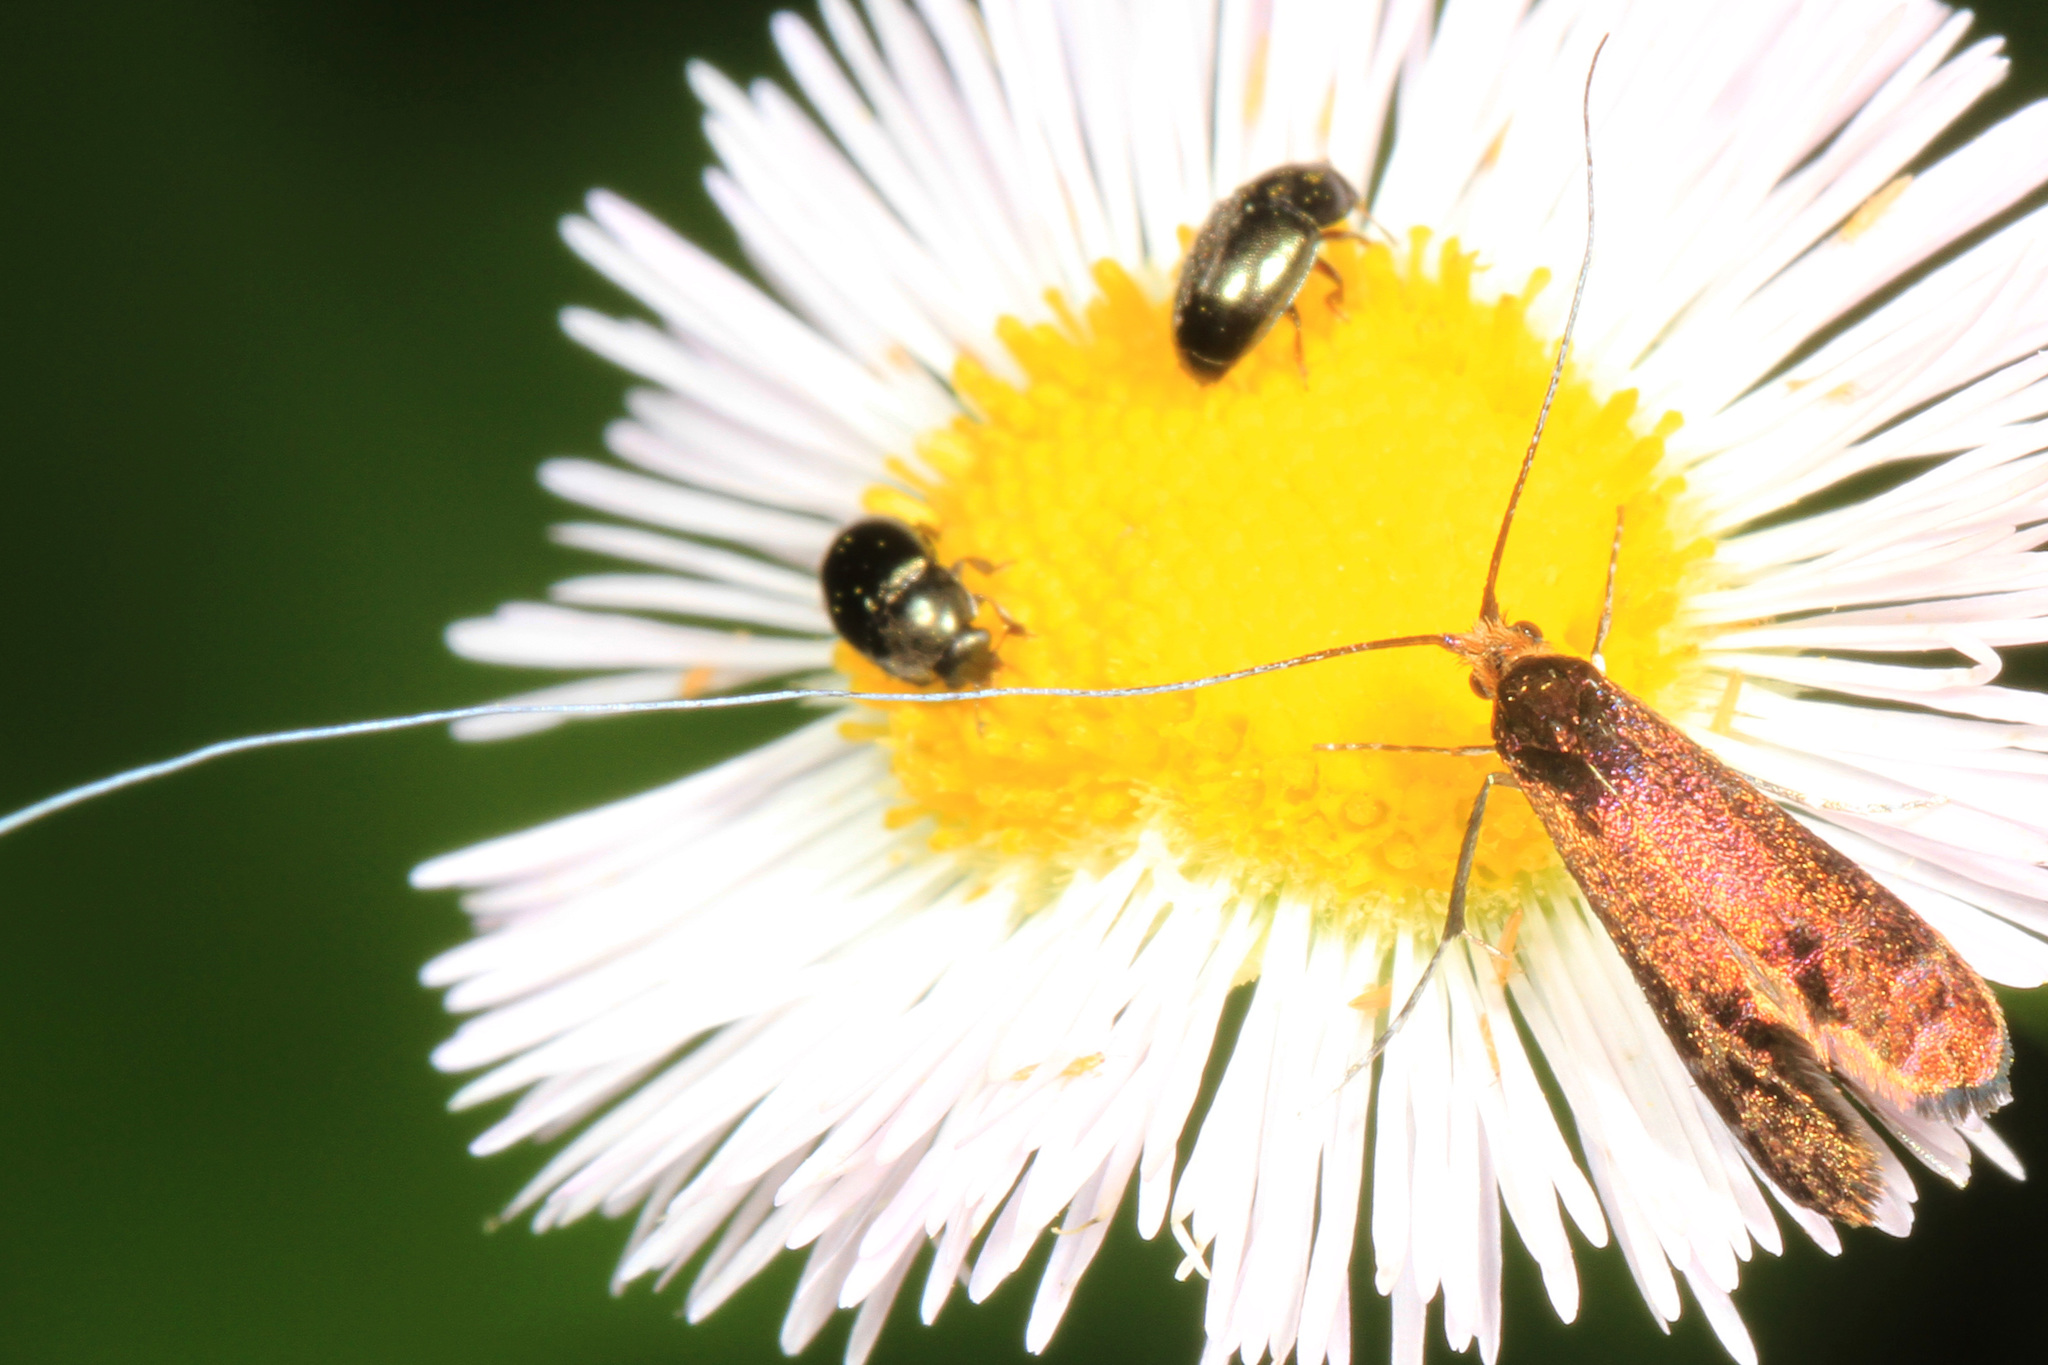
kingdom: Animalia
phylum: Arthropoda
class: Insecta
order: Lepidoptera
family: Adelidae
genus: Adela
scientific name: Adela caeruleella
